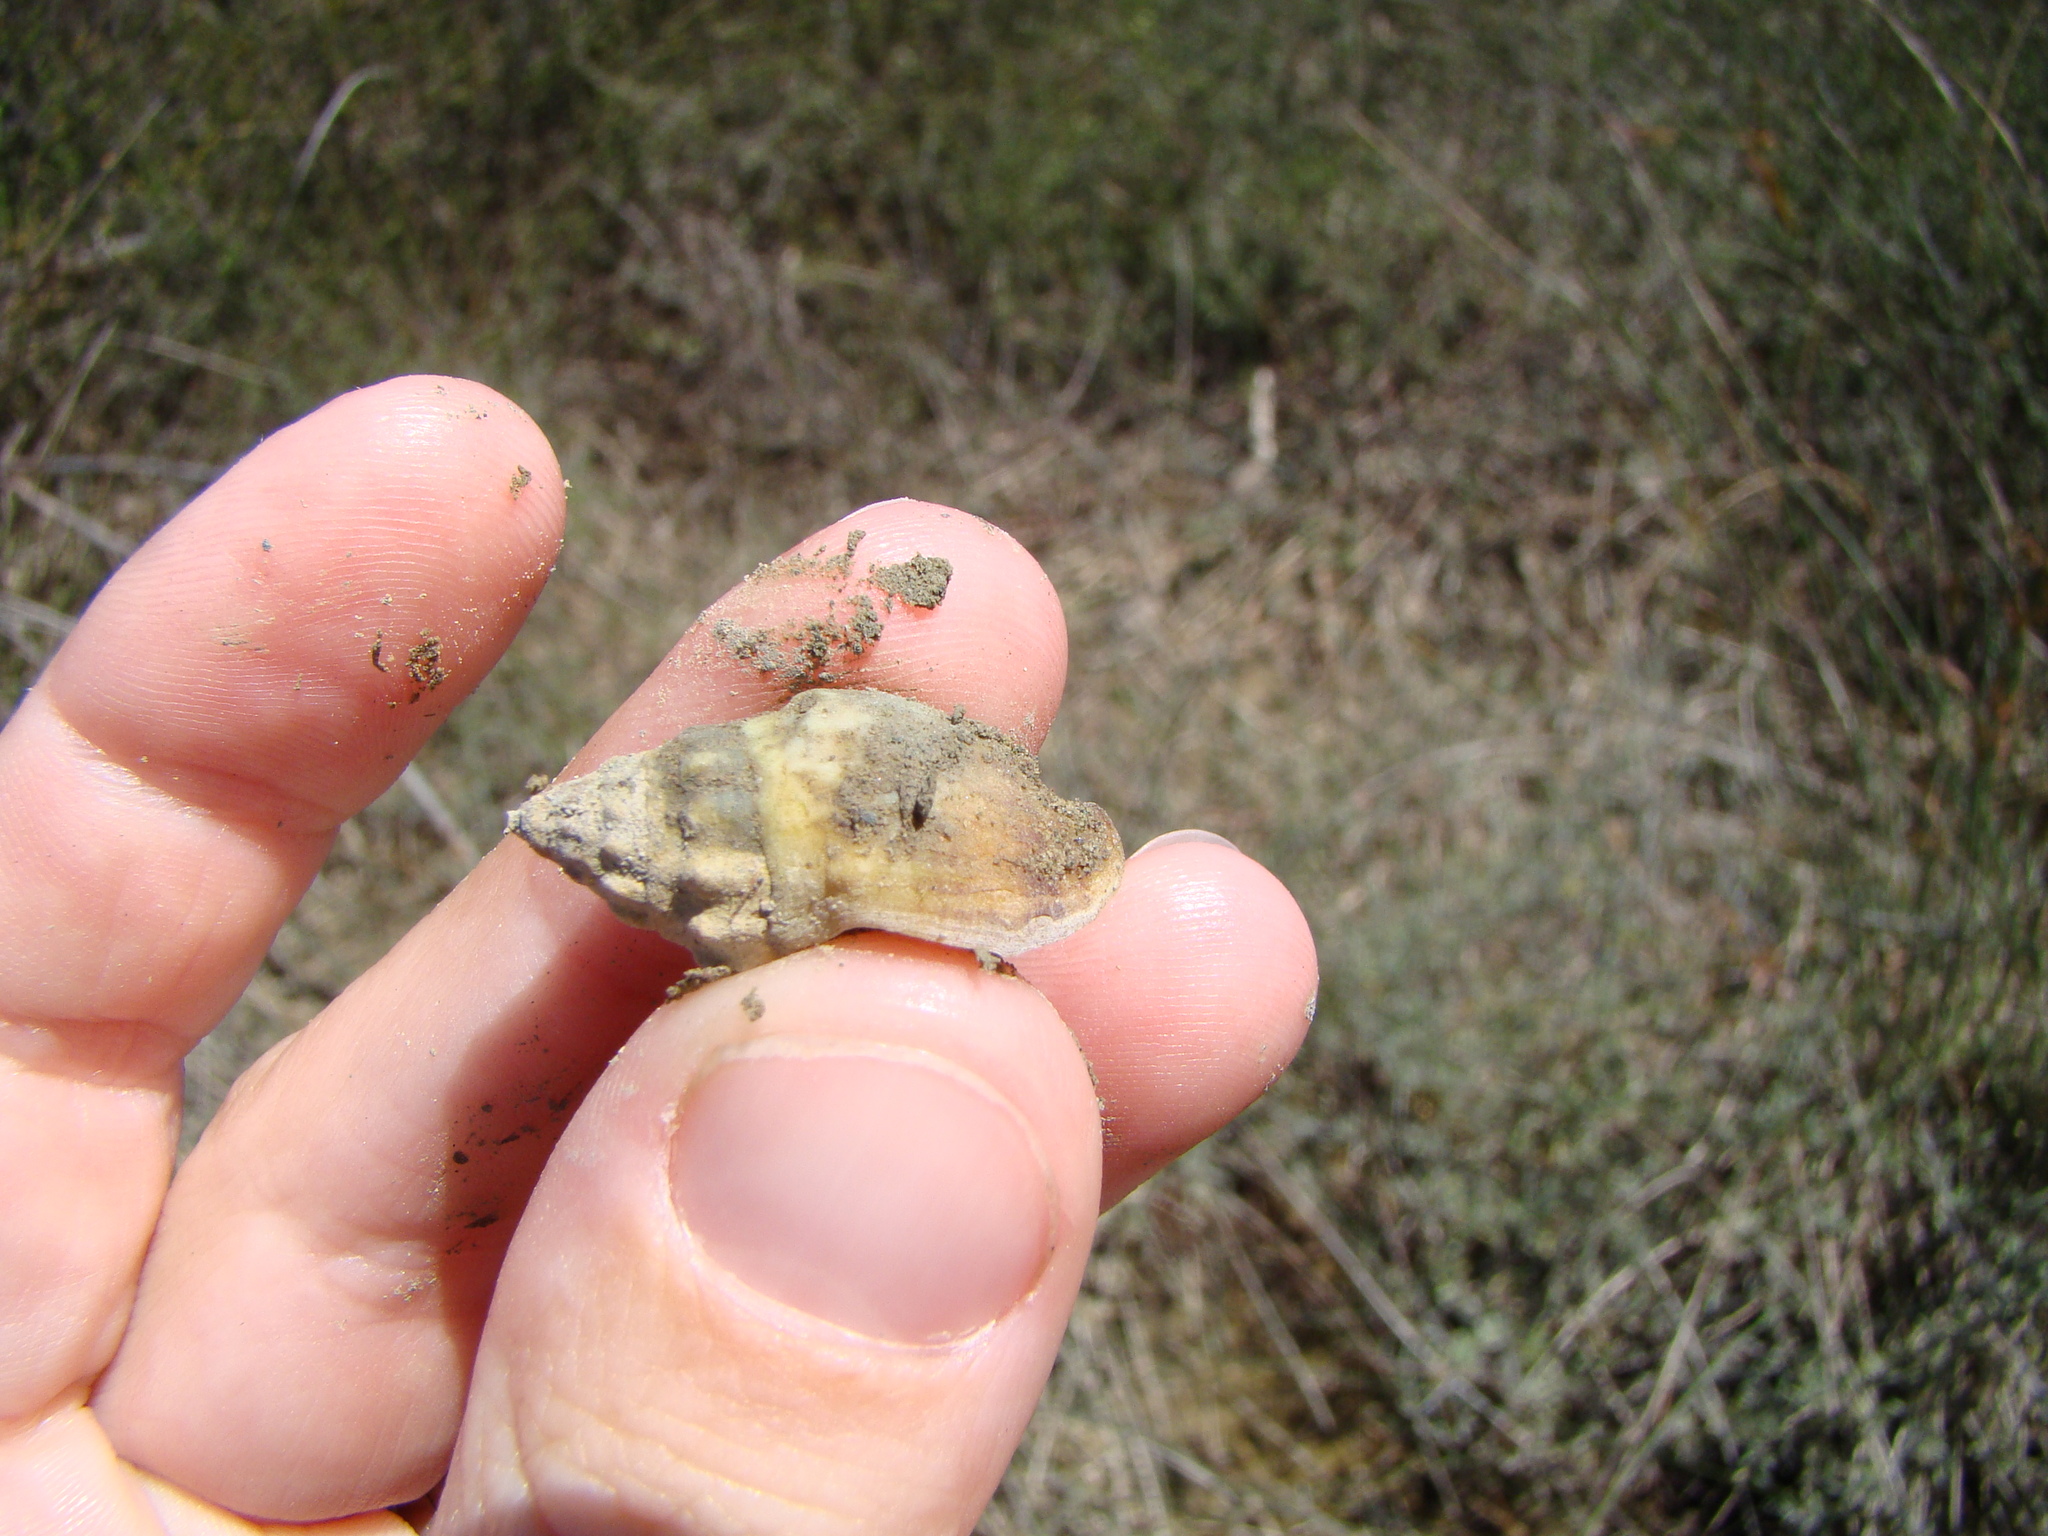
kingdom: Animalia
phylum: Mollusca
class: Gastropoda
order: Neogastropoda
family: Cominellidae
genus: Cominella
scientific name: Cominella glandiformis
